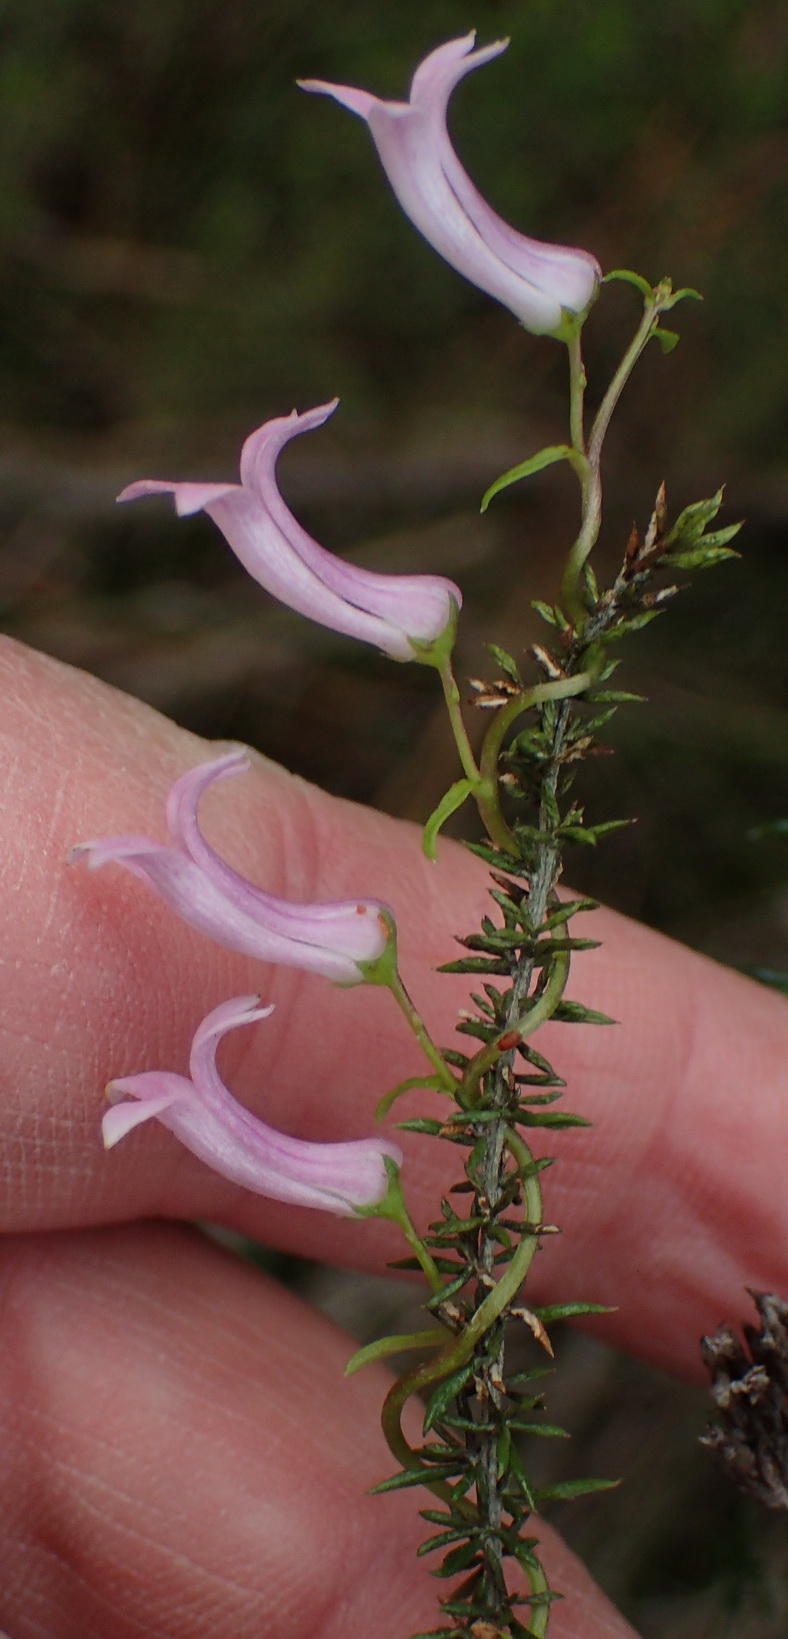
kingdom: Plantae
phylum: Tracheophyta
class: Magnoliopsida
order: Asterales
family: Campanulaceae
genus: Cyphia
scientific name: Cyphia digitata
